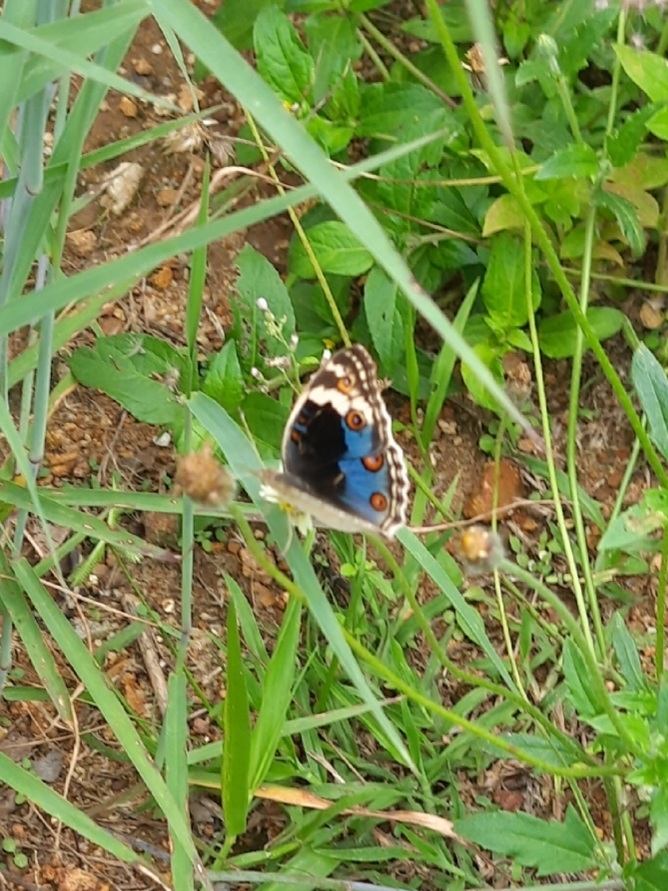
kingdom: Animalia
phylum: Arthropoda
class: Insecta
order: Lepidoptera
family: Nymphalidae
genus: Junonia
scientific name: Junonia orithya
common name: Blue pansy
